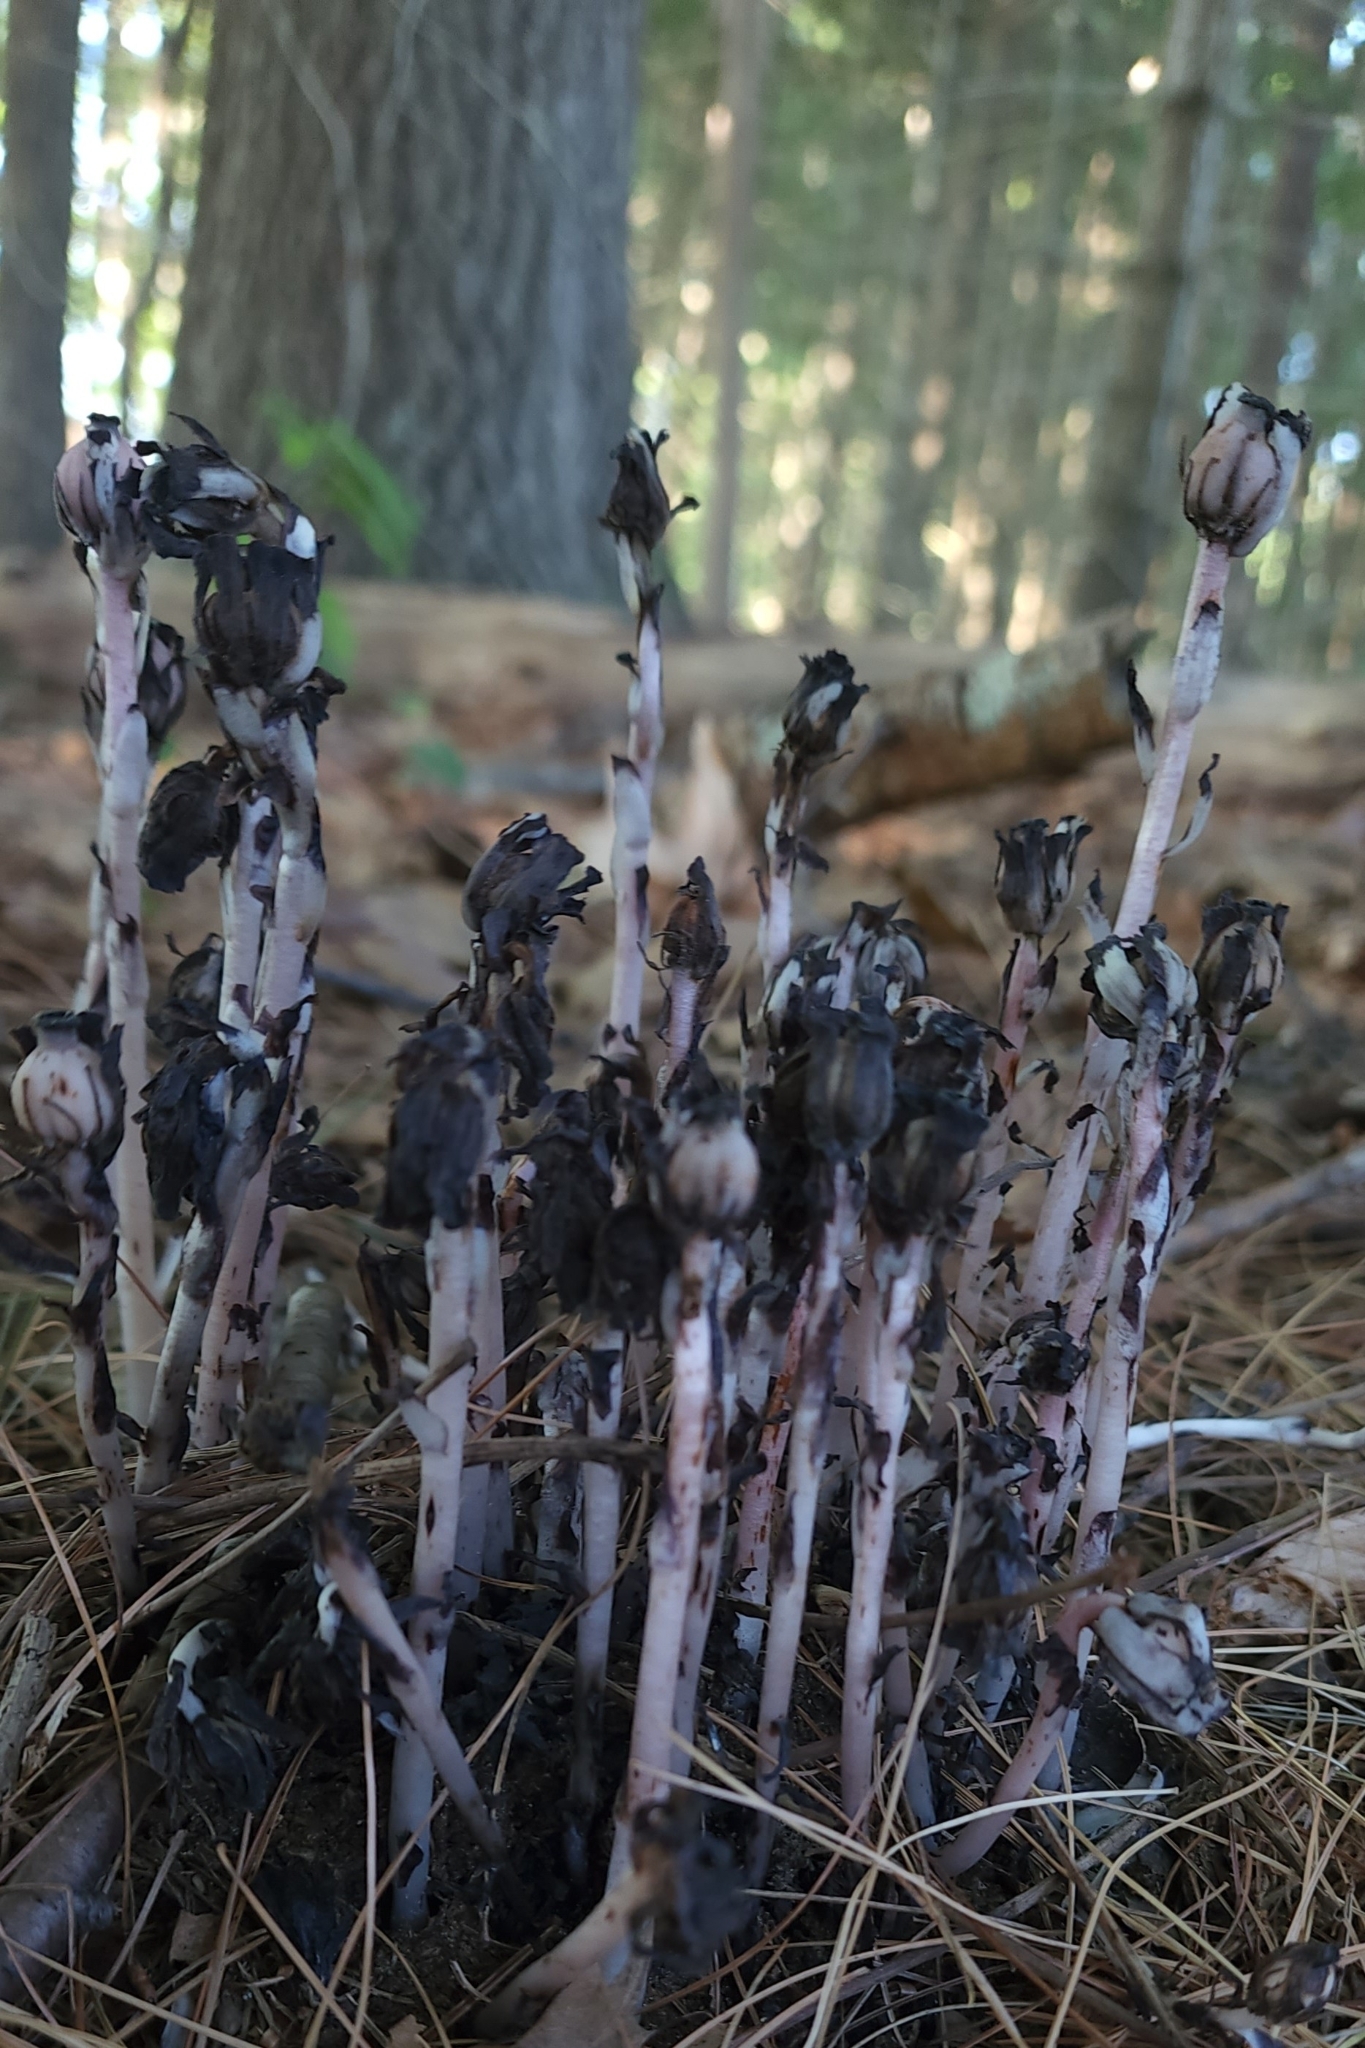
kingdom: Plantae
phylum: Tracheophyta
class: Magnoliopsida
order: Ericales
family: Ericaceae
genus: Monotropa
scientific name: Monotropa uniflora
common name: Convulsion root
